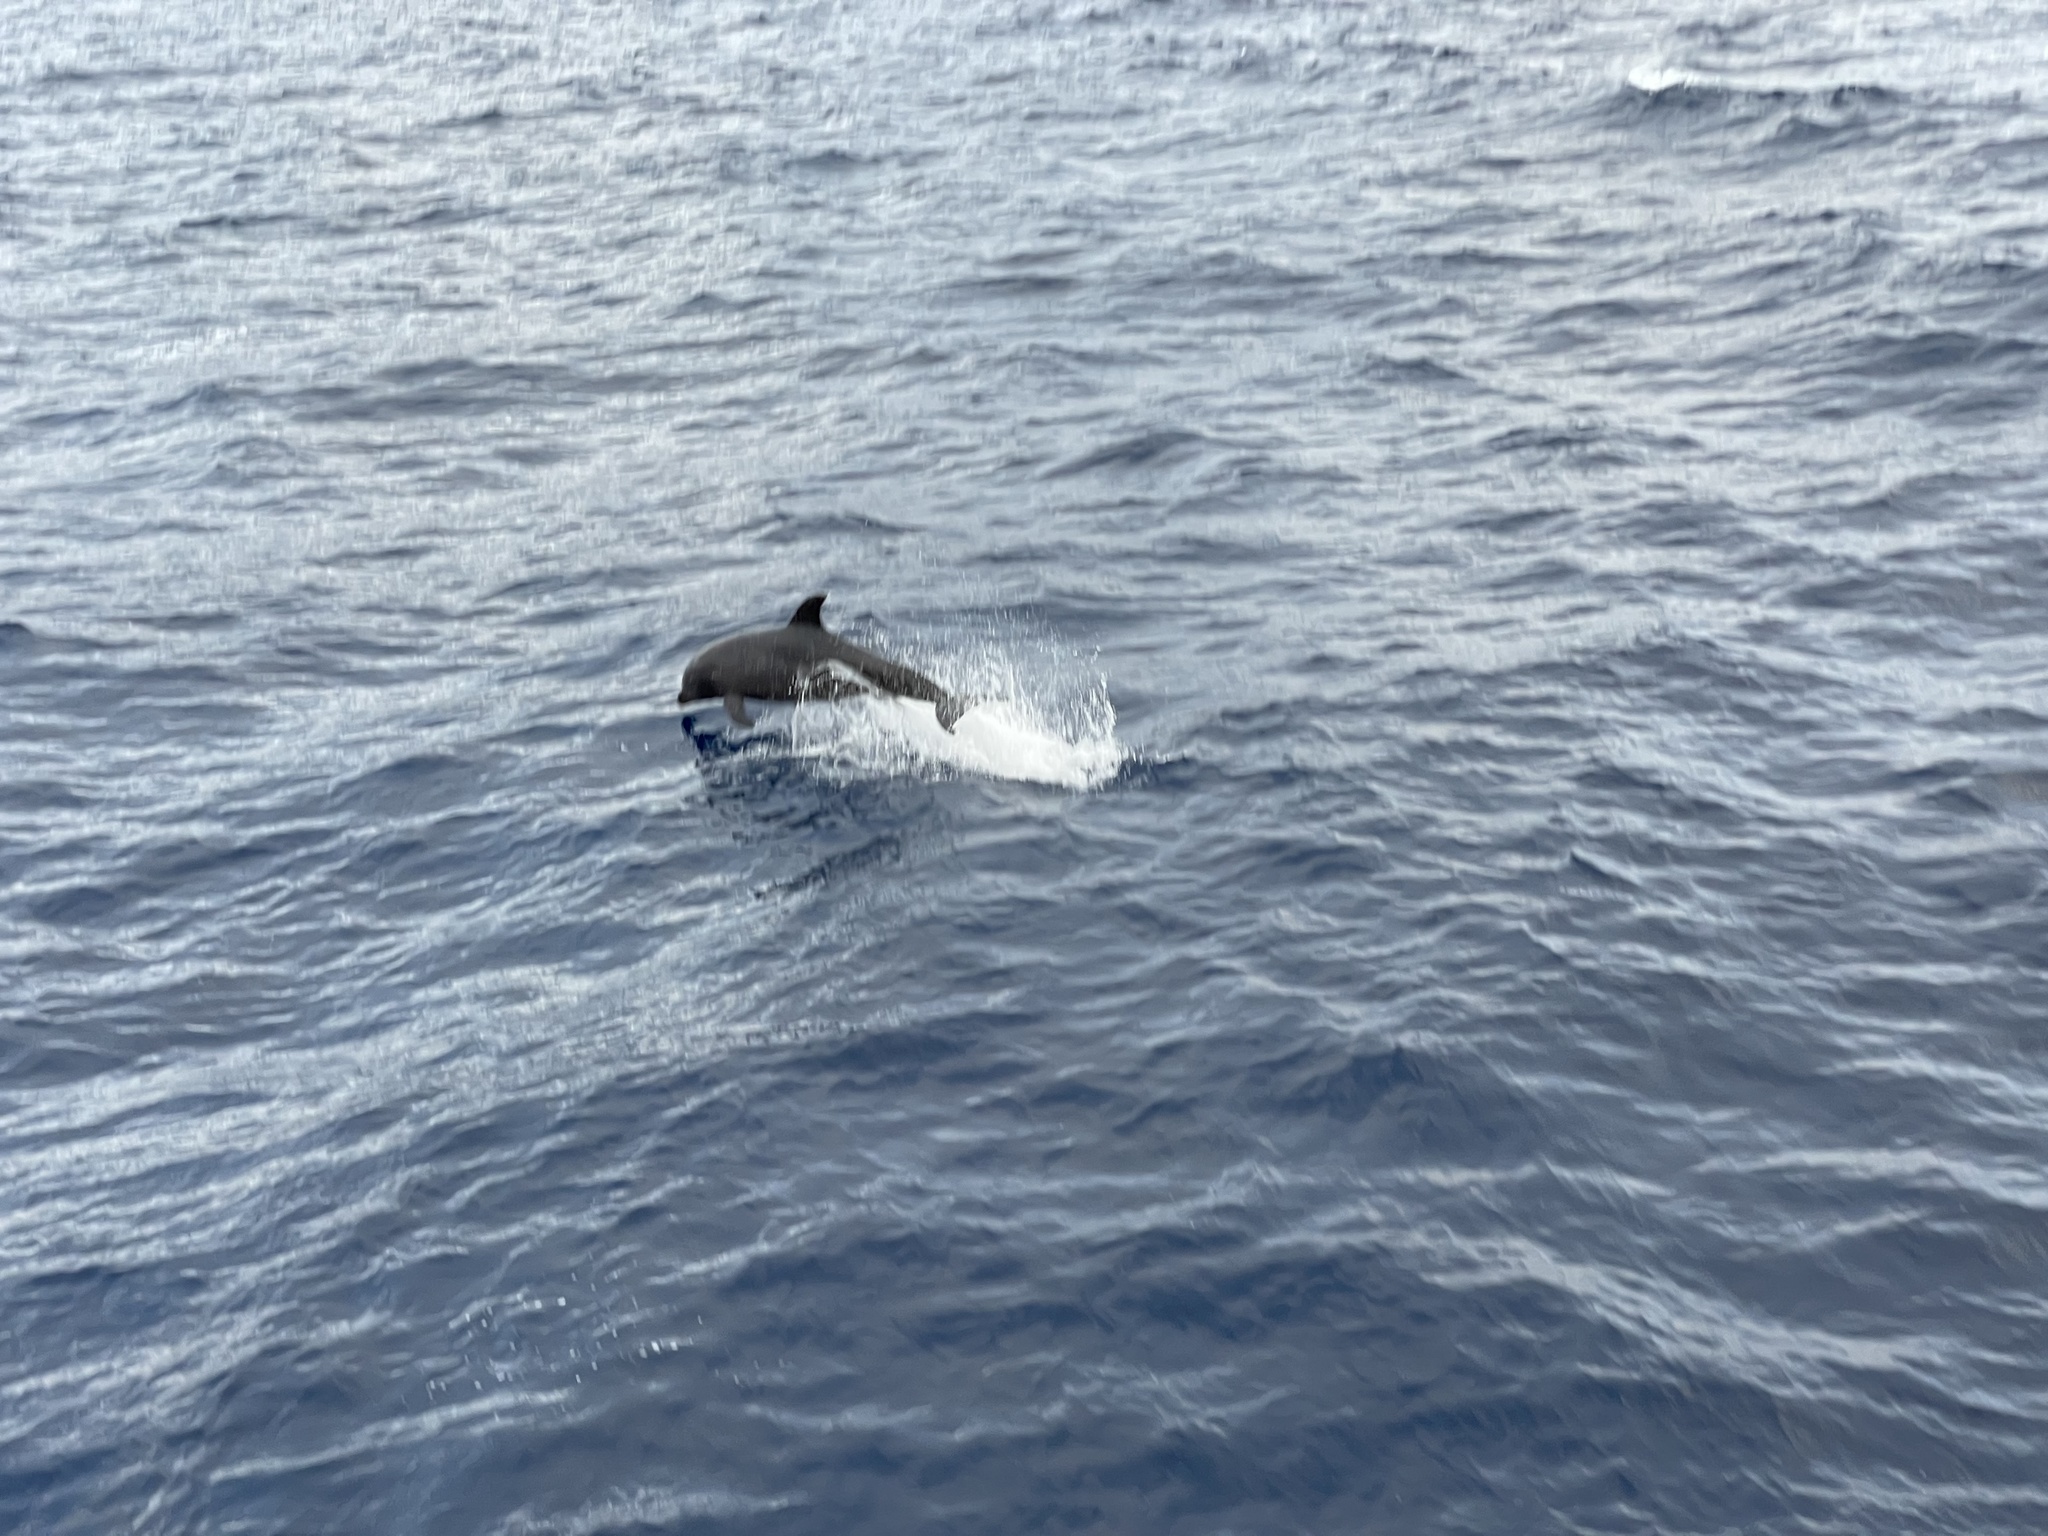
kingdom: Animalia
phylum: Chordata
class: Mammalia
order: Cetacea
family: Delphinidae
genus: Tursiops
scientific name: Tursiops truncatus
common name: Bottlenose dolphin
